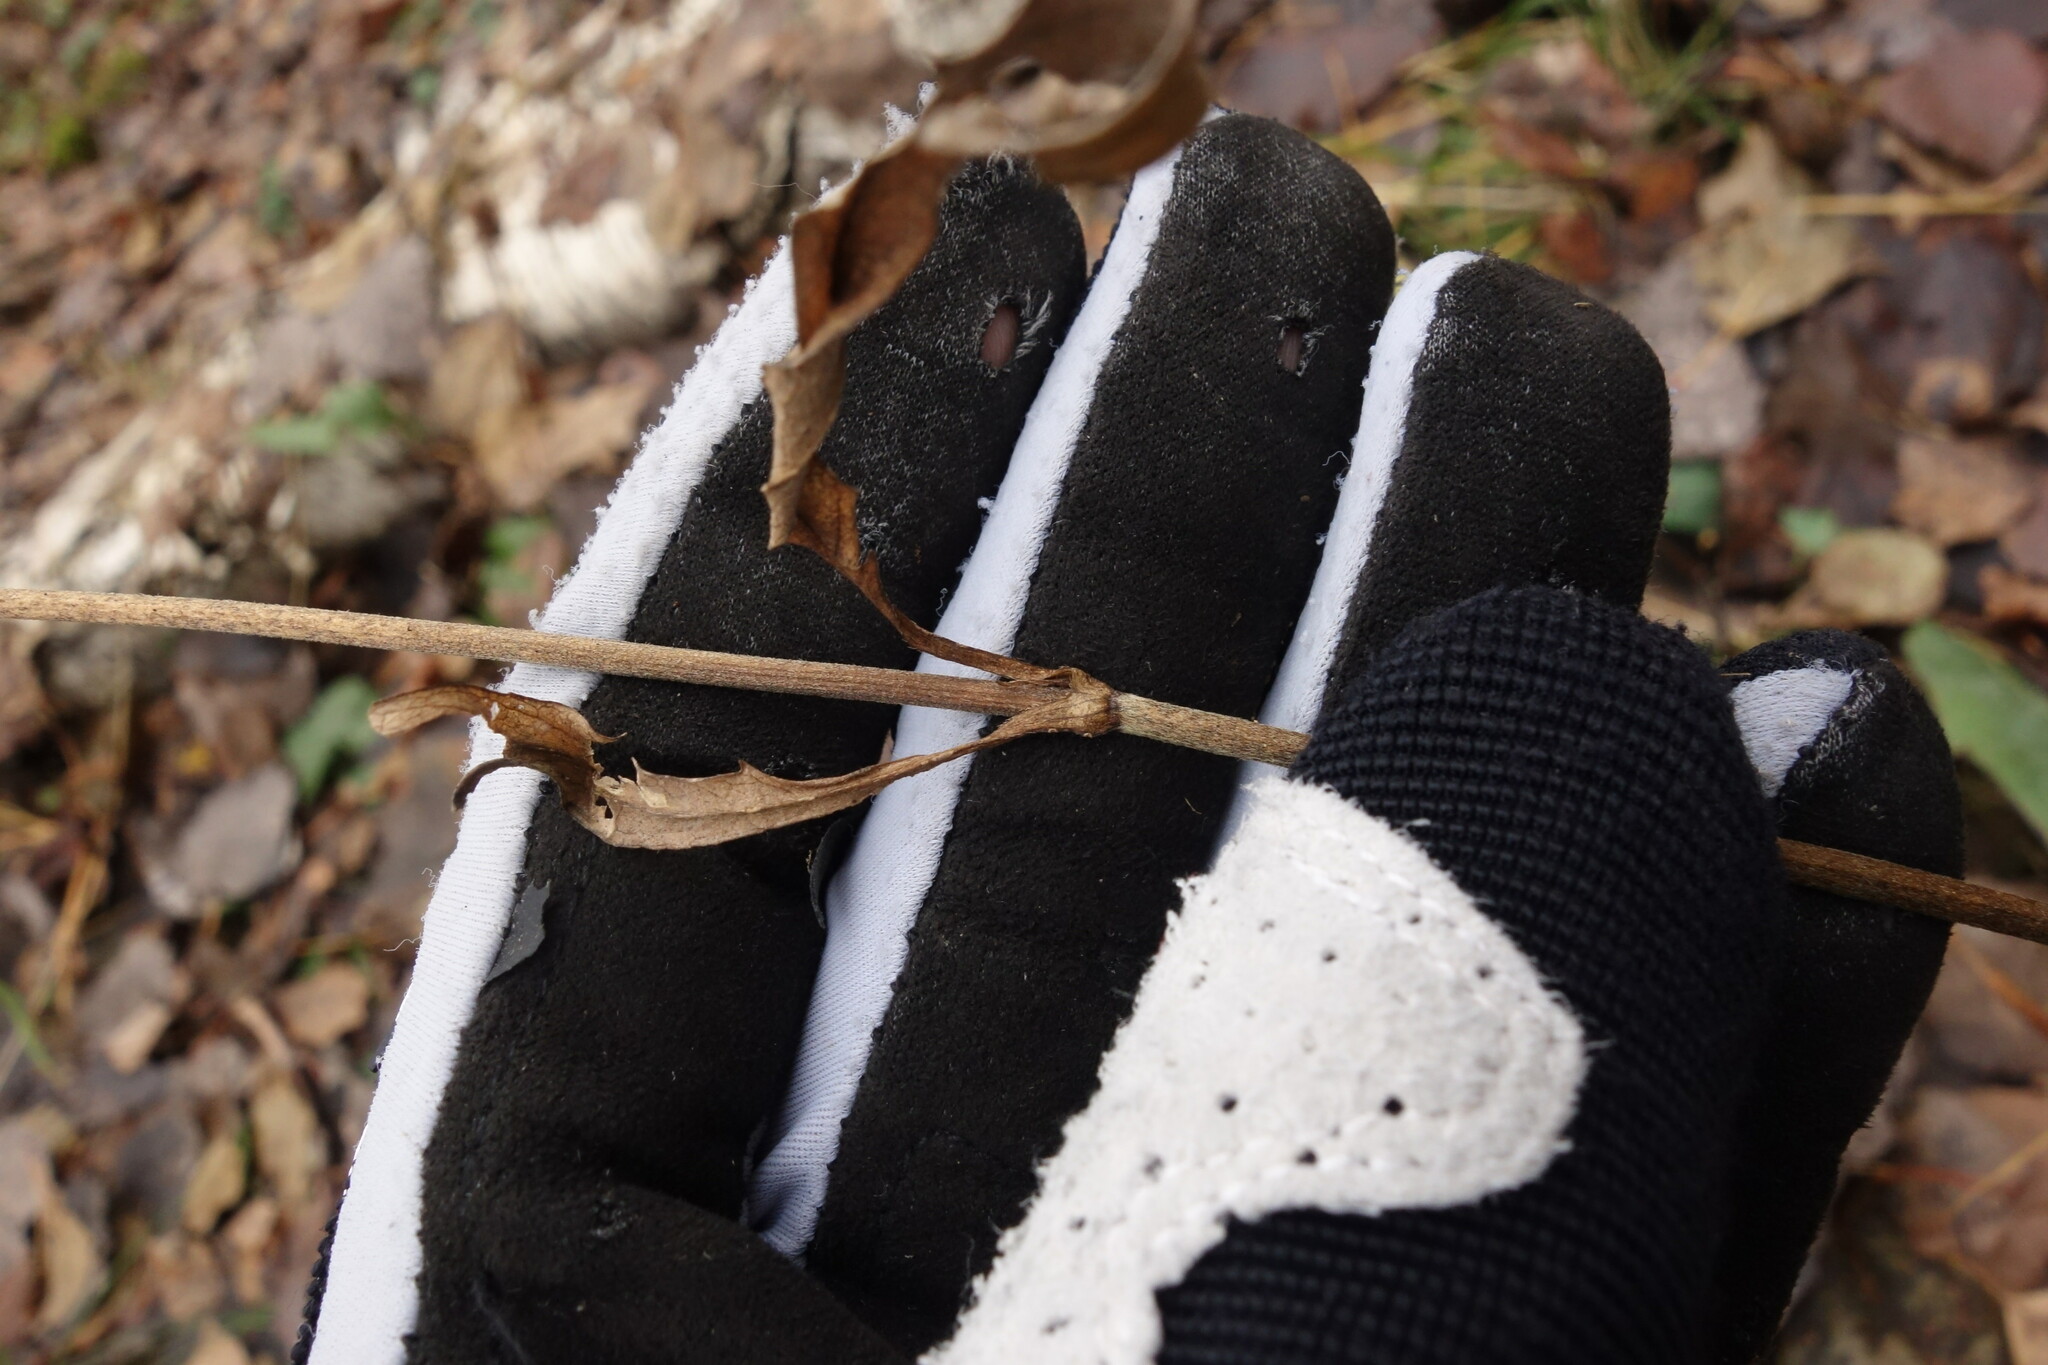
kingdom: Plantae
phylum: Tracheophyta
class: Magnoliopsida
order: Dipsacales
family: Caprifoliaceae
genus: Succisa
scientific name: Succisa pratensis
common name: Devil's-bit
